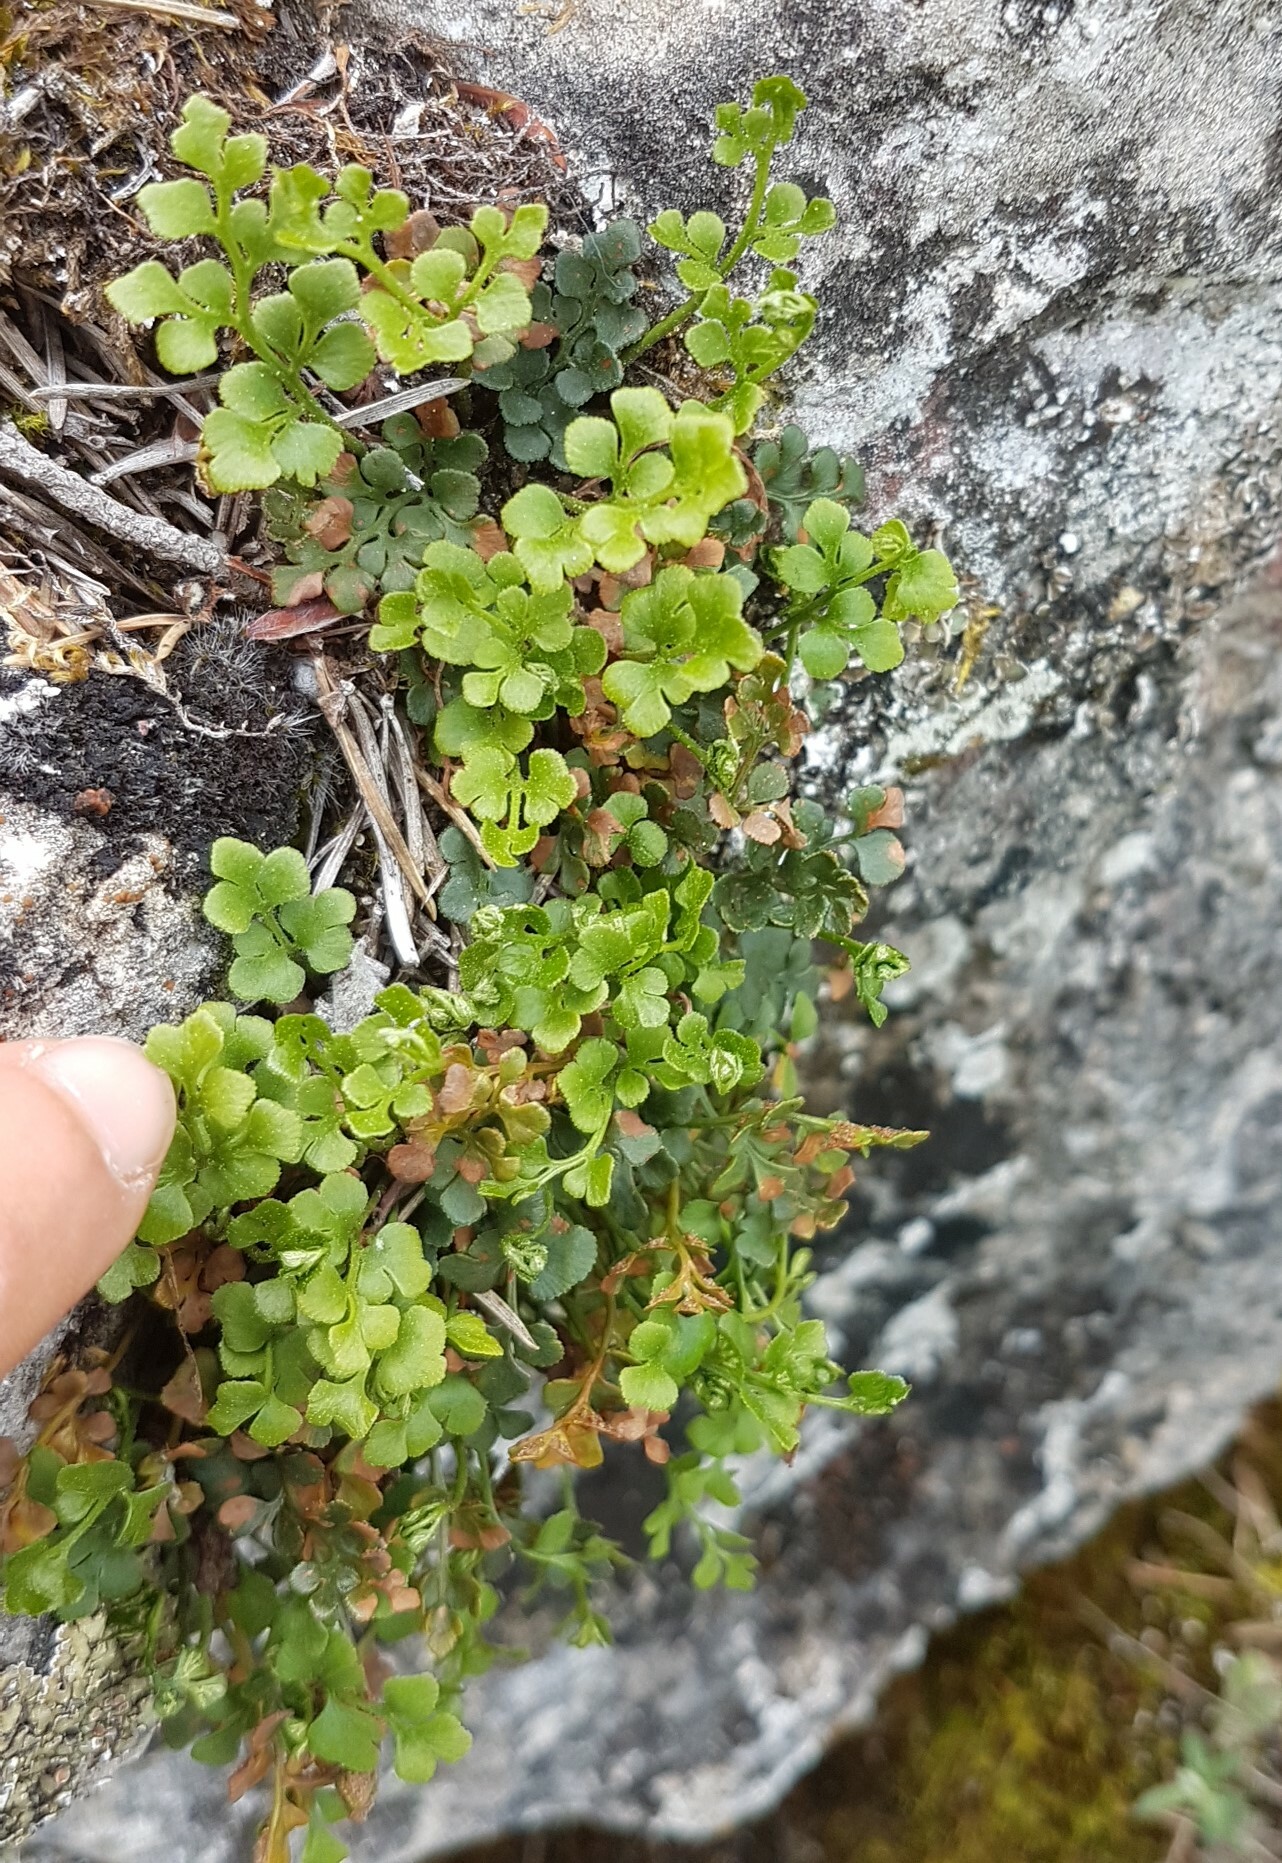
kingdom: Plantae
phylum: Tracheophyta
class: Polypodiopsida
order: Polypodiales
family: Aspleniaceae
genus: Asplenium
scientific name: Asplenium ruta-muraria
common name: Wall-rue
